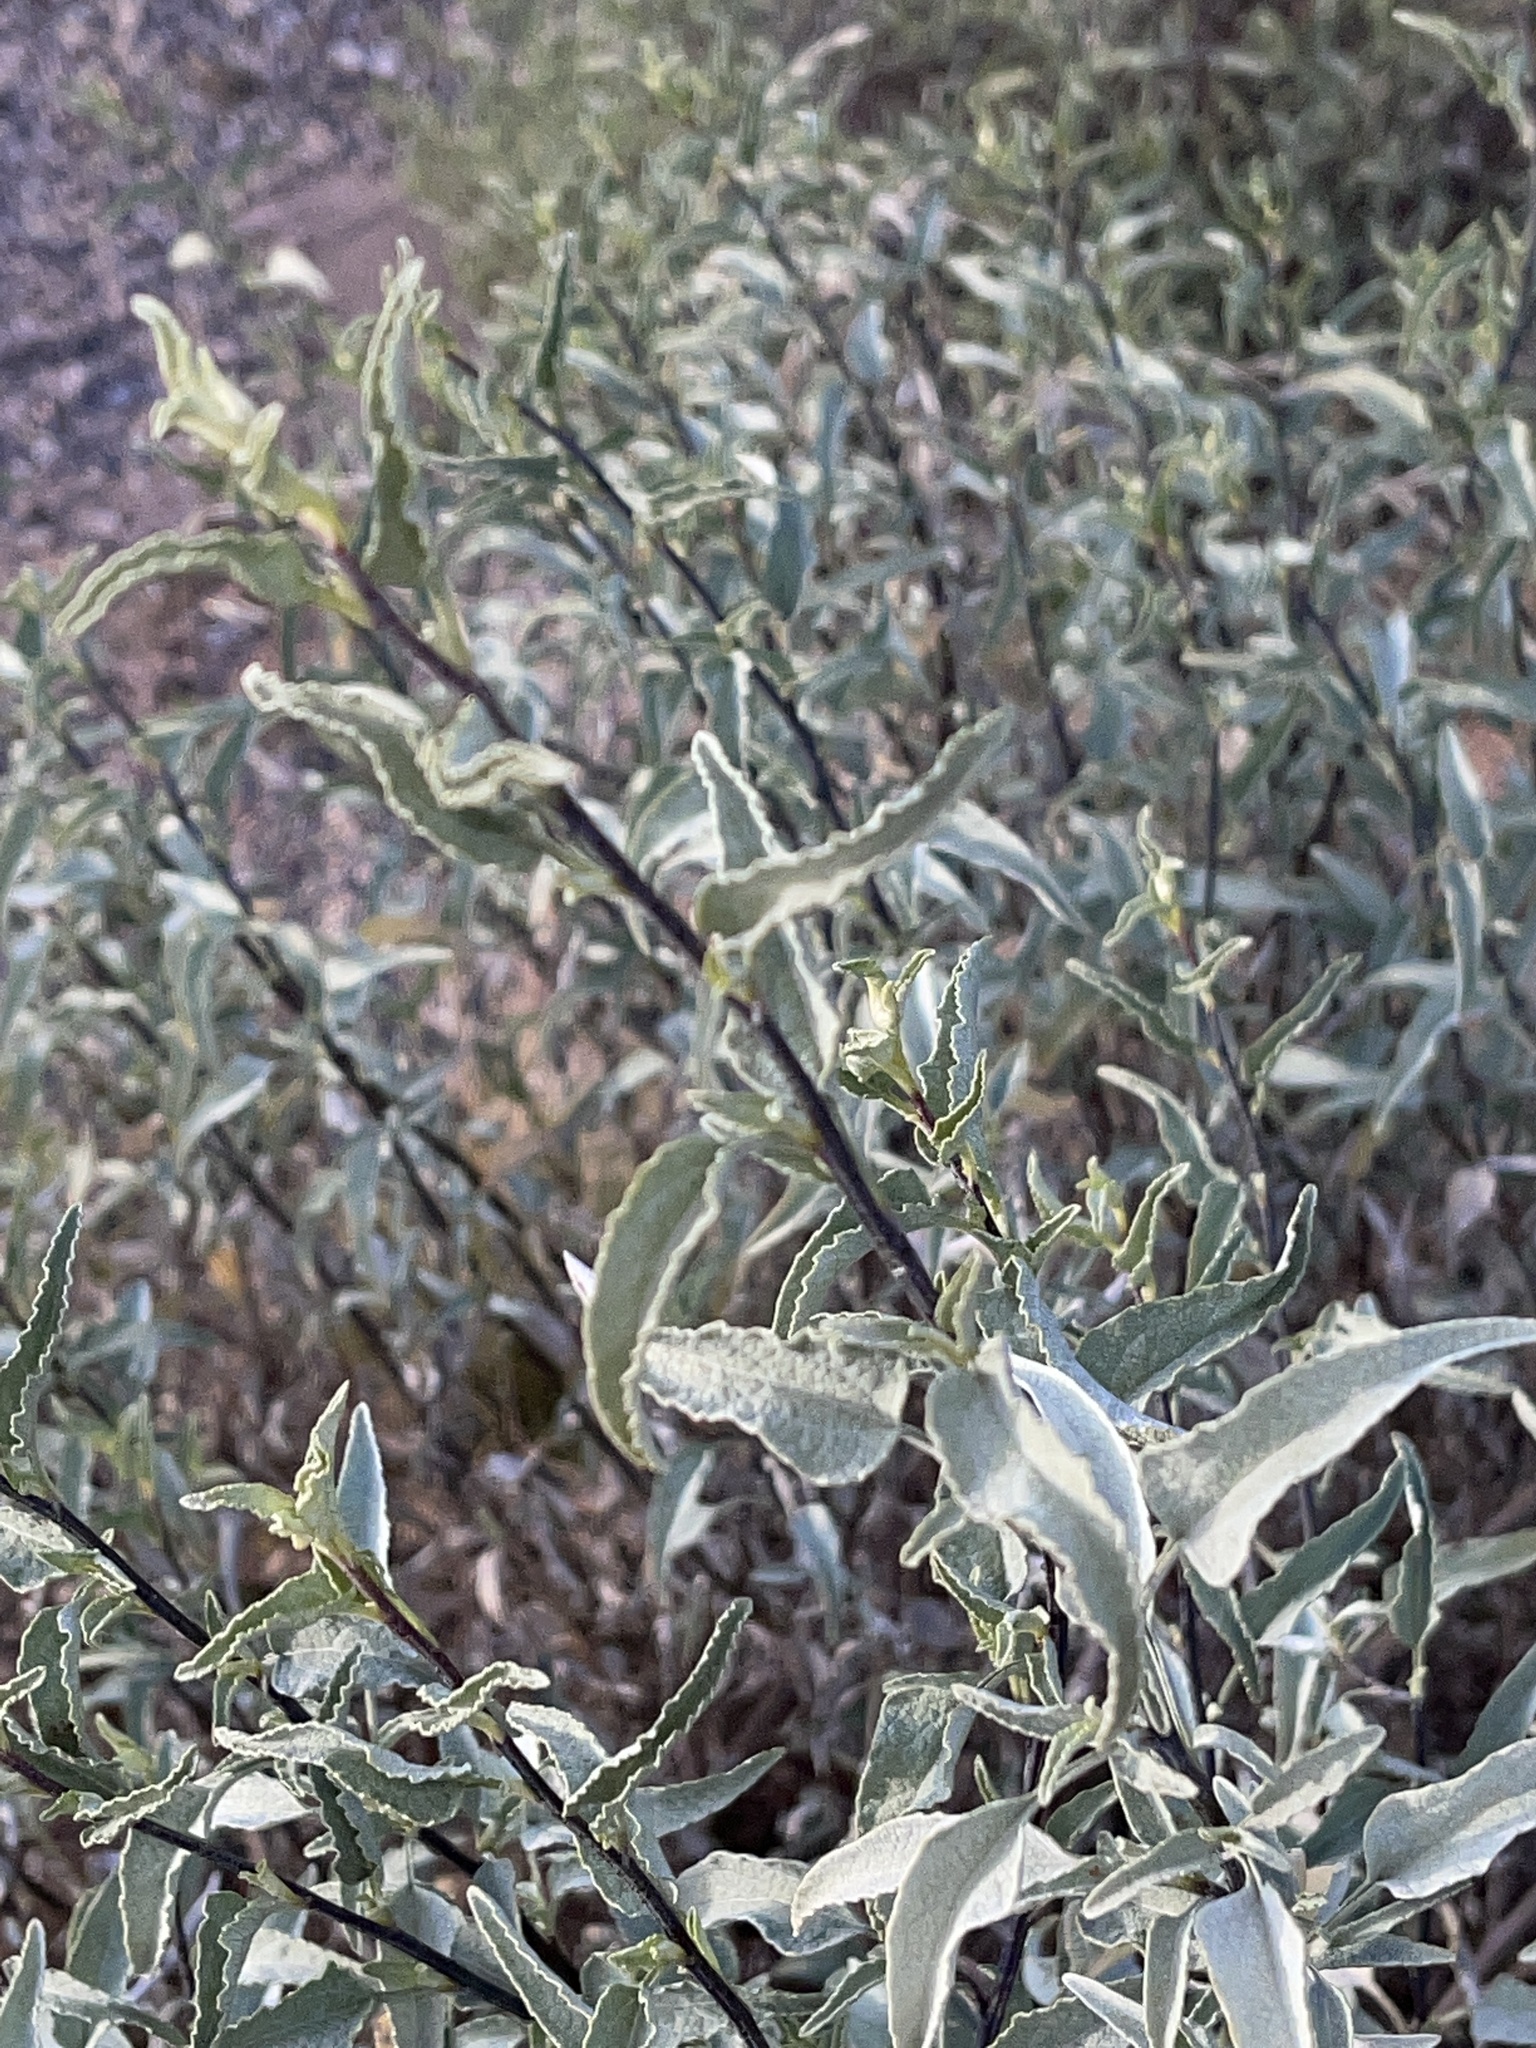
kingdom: Plantae
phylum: Tracheophyta
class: Magnoliopsida
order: Asterales
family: Asteraceae
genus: Ambrosia
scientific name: Ambrosia deltoidea
